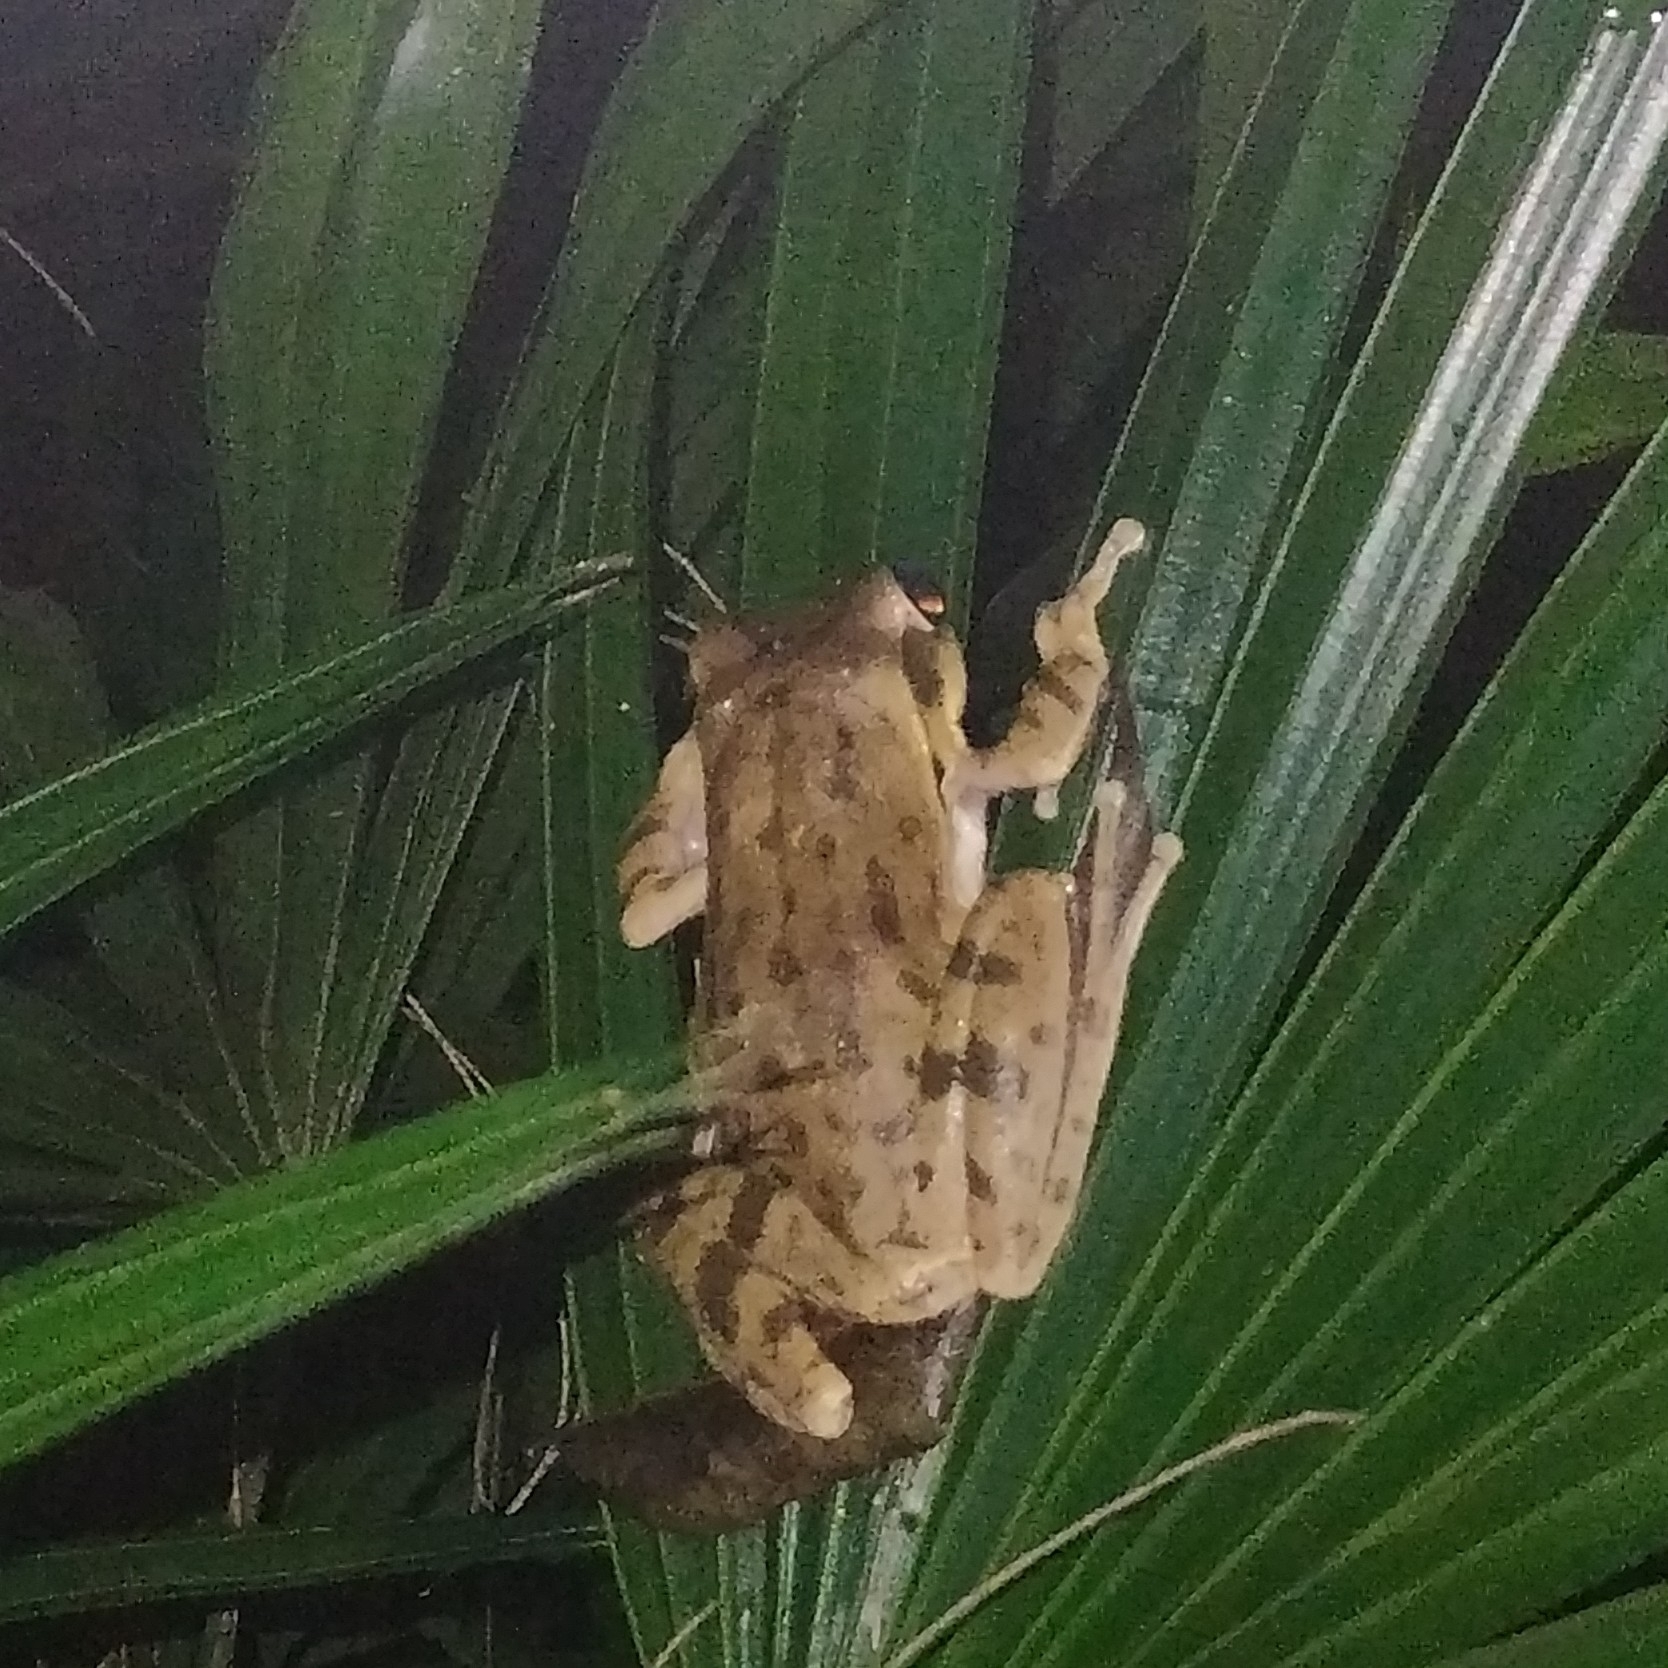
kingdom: Animalia
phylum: Chordata
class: Amphibia
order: Anura
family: Rhacophoridae
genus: Polypedates
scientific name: Polypedates maculatus
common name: Himalayan tree frog
